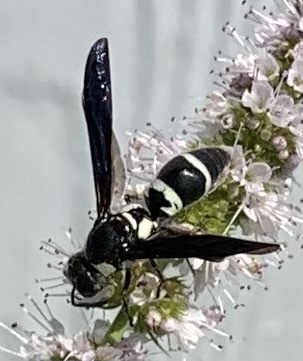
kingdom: Animalia
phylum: Arthropoda
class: Insecta
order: Hymenoptera
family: Eumenidae
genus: Pseudodynerus
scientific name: Pseudodynerus quadrisectus
